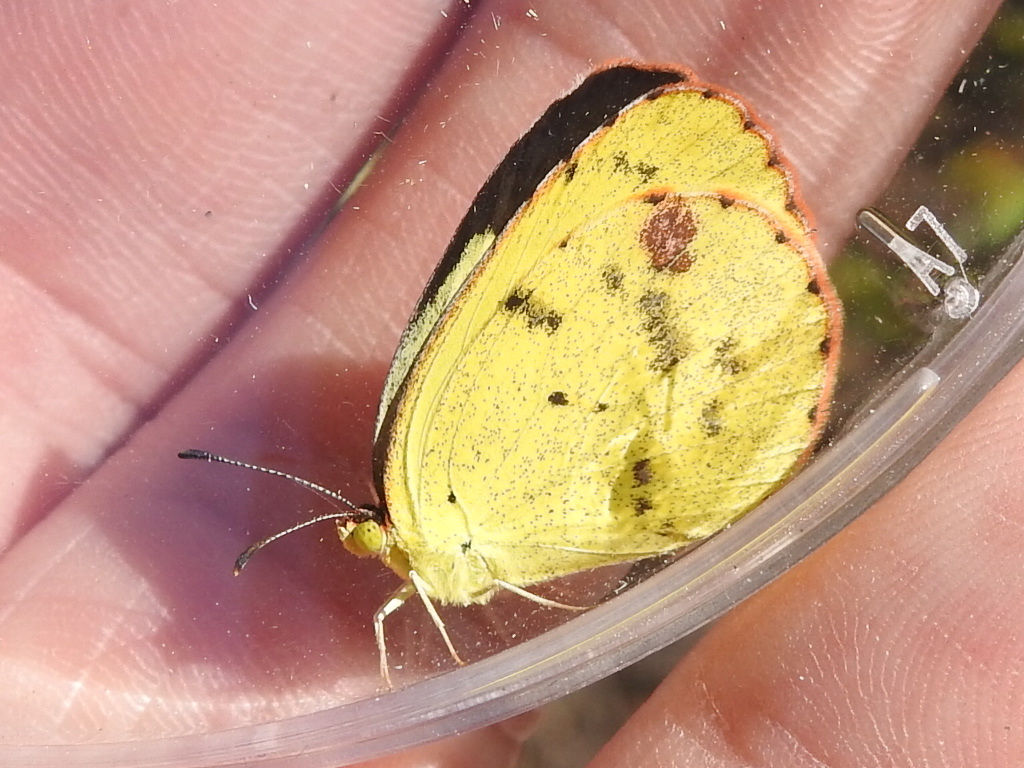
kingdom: Animalia
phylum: Arthropoda
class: Insecta
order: Lepidoptera
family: Pieridae
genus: Pyrisitia
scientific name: Pyrisitia lisa
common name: Little yellow
